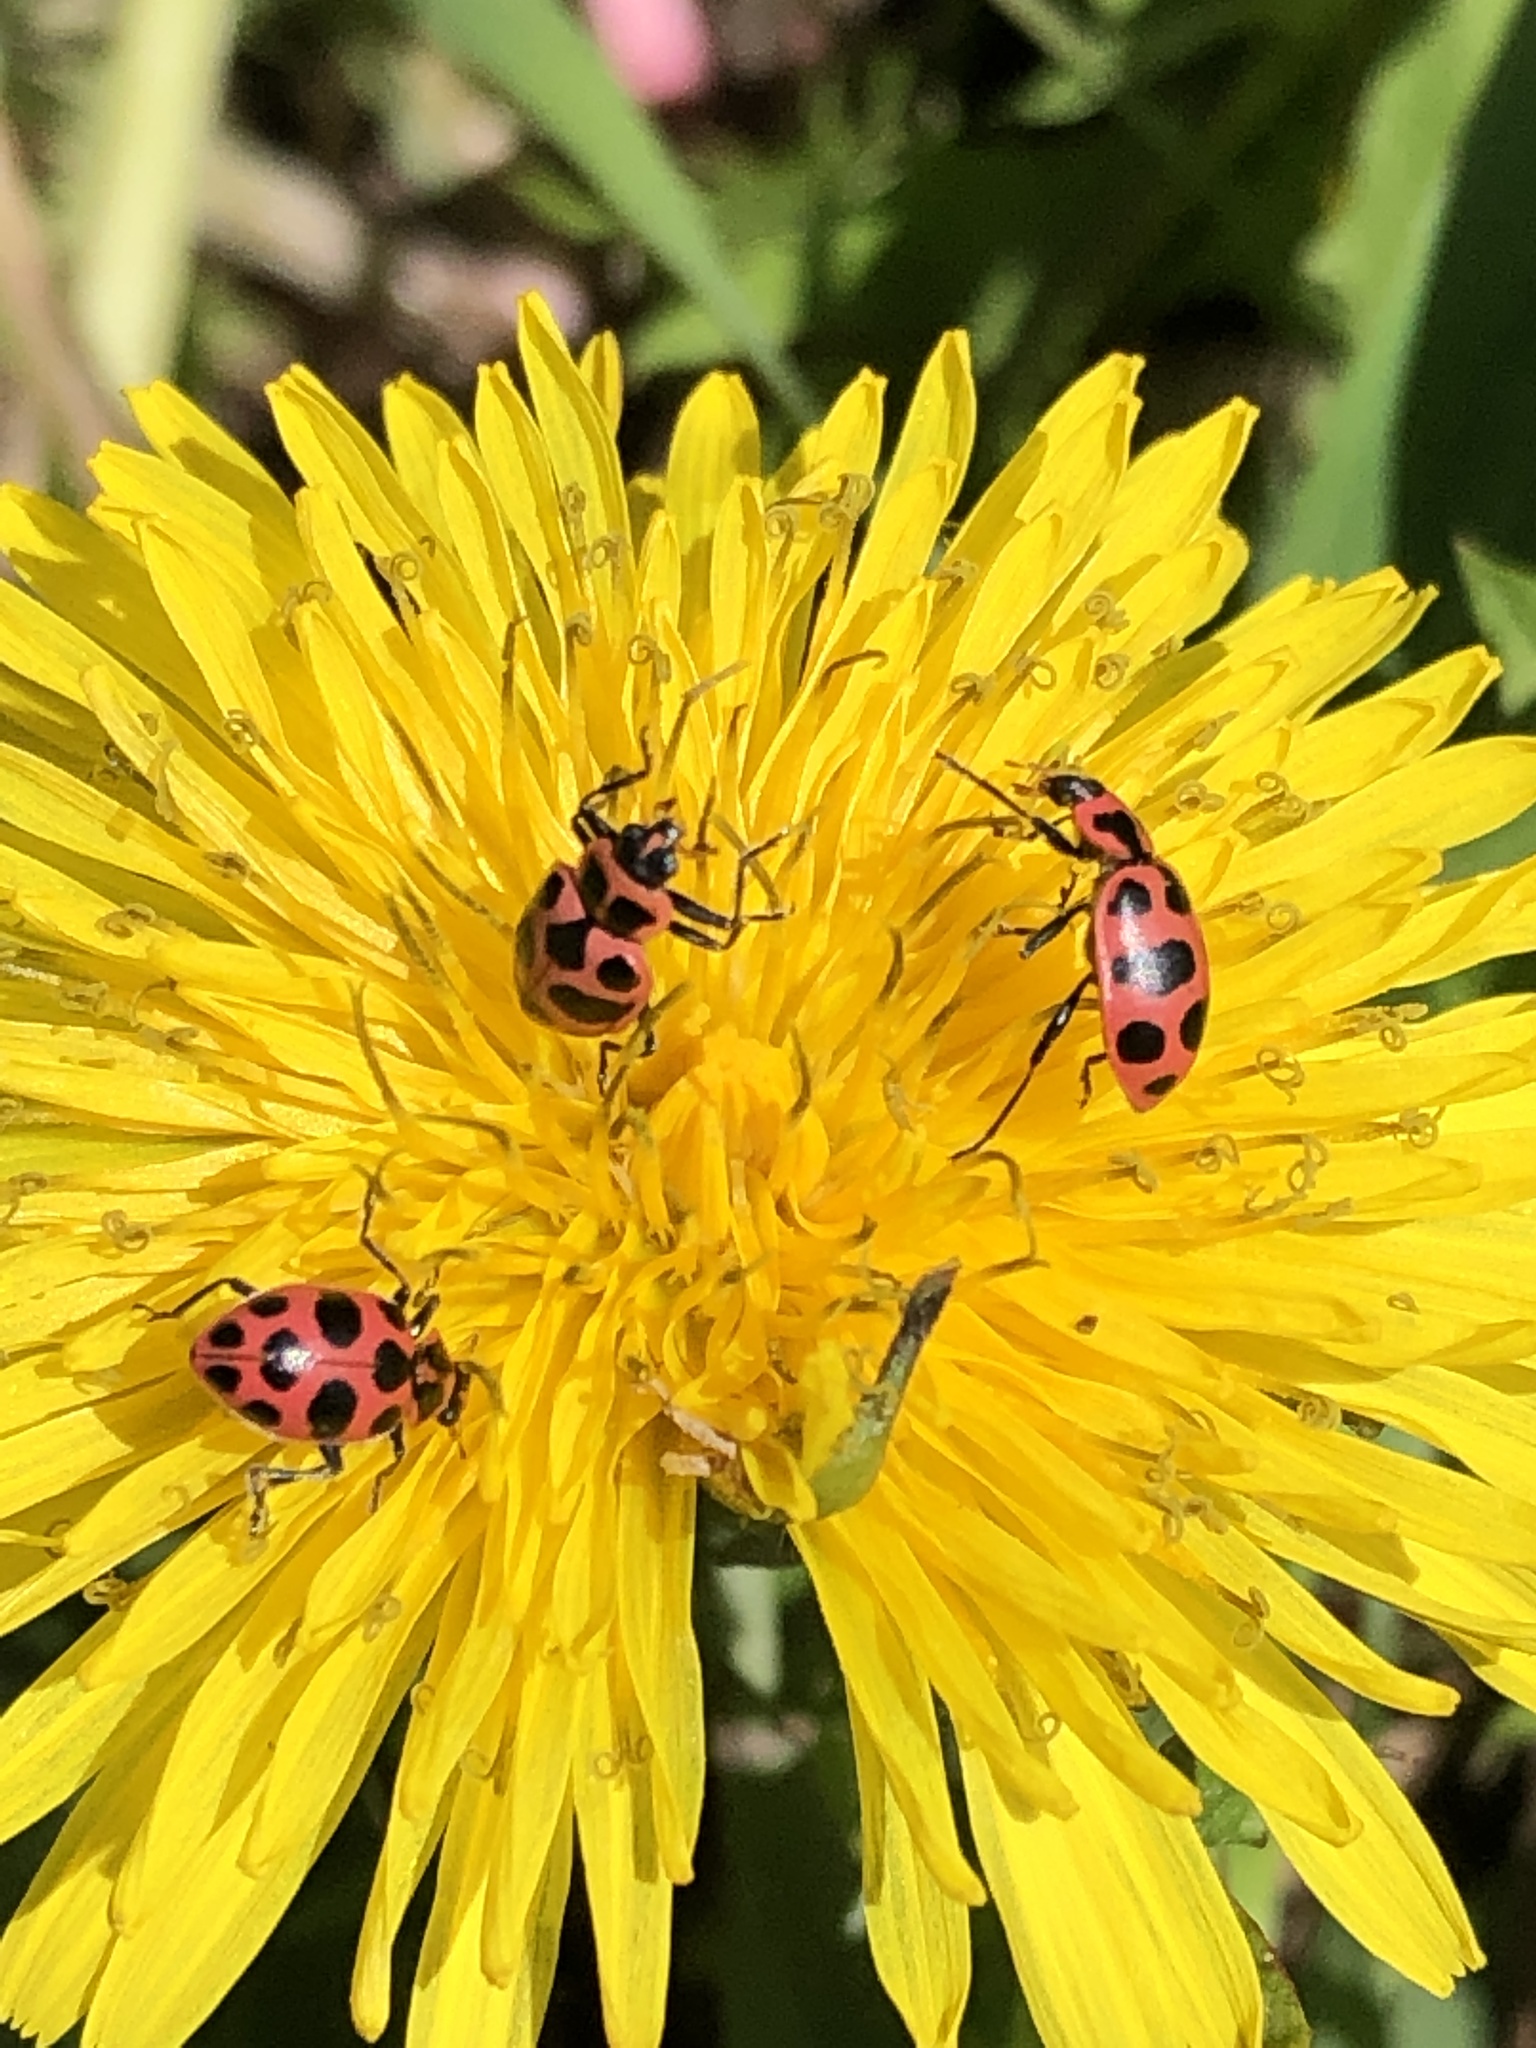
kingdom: Animalia
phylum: Arthropoda
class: Insecta
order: Coleoptera
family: Coccinellidae
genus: Coleomegilla
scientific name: Coleomegilla maculata
